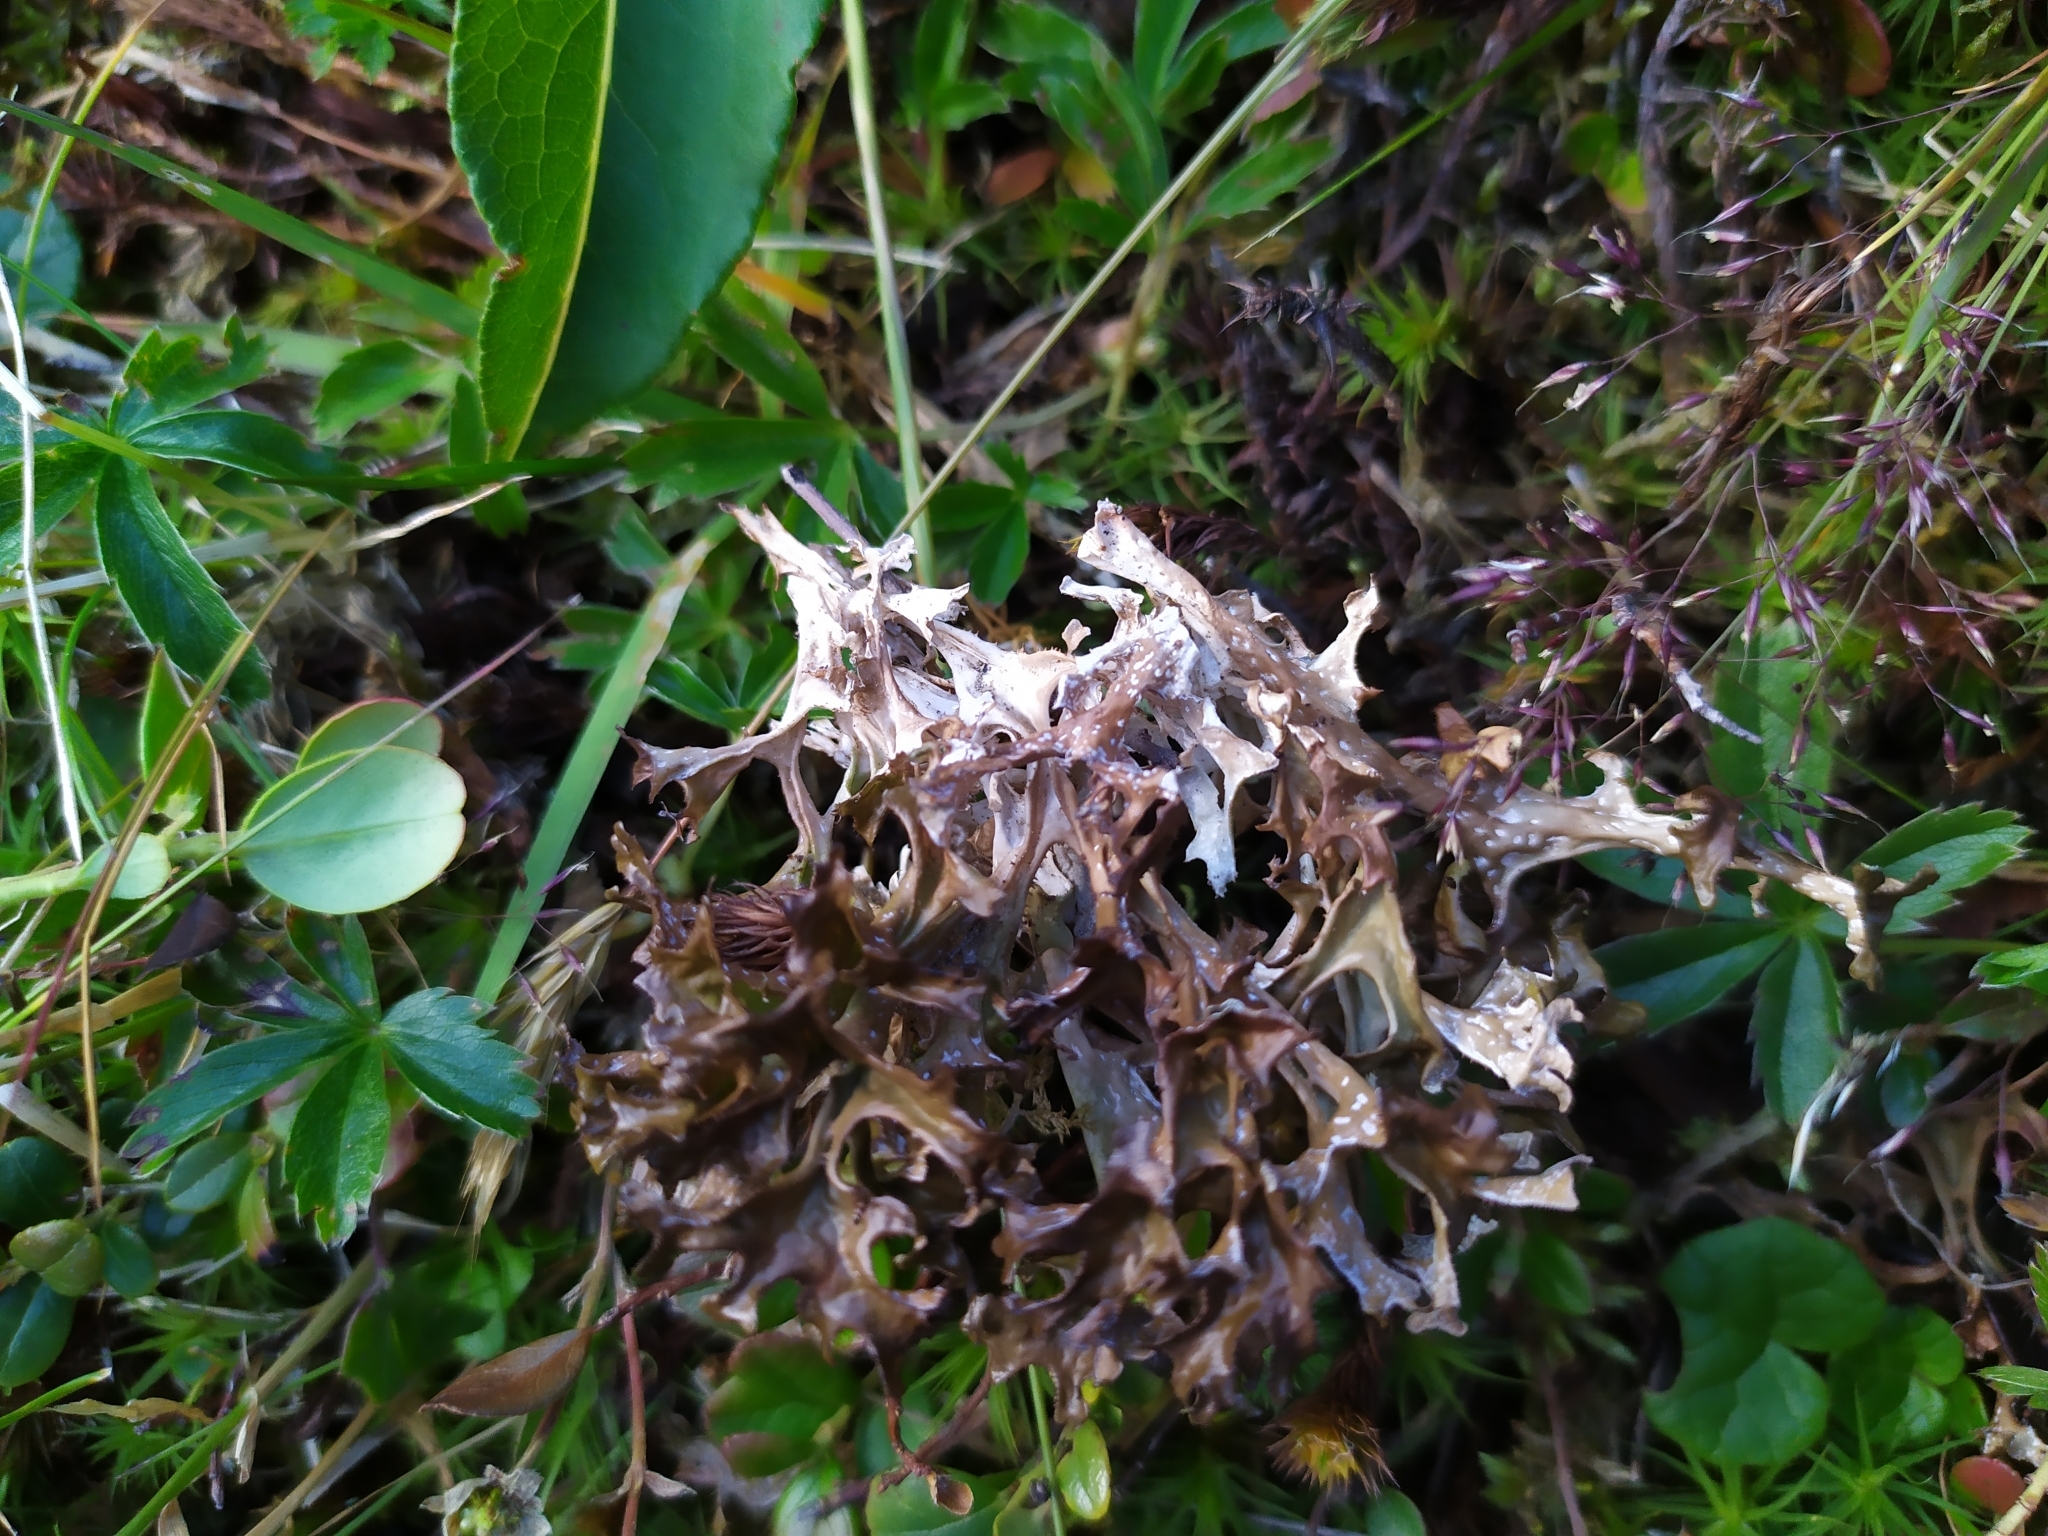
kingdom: Fungi
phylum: Ascomycota
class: Lecanoromycetes
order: Lecanorales
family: Parmeliaceae
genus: Cetraria
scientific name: Cetraria islandica
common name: Iceland lichen
